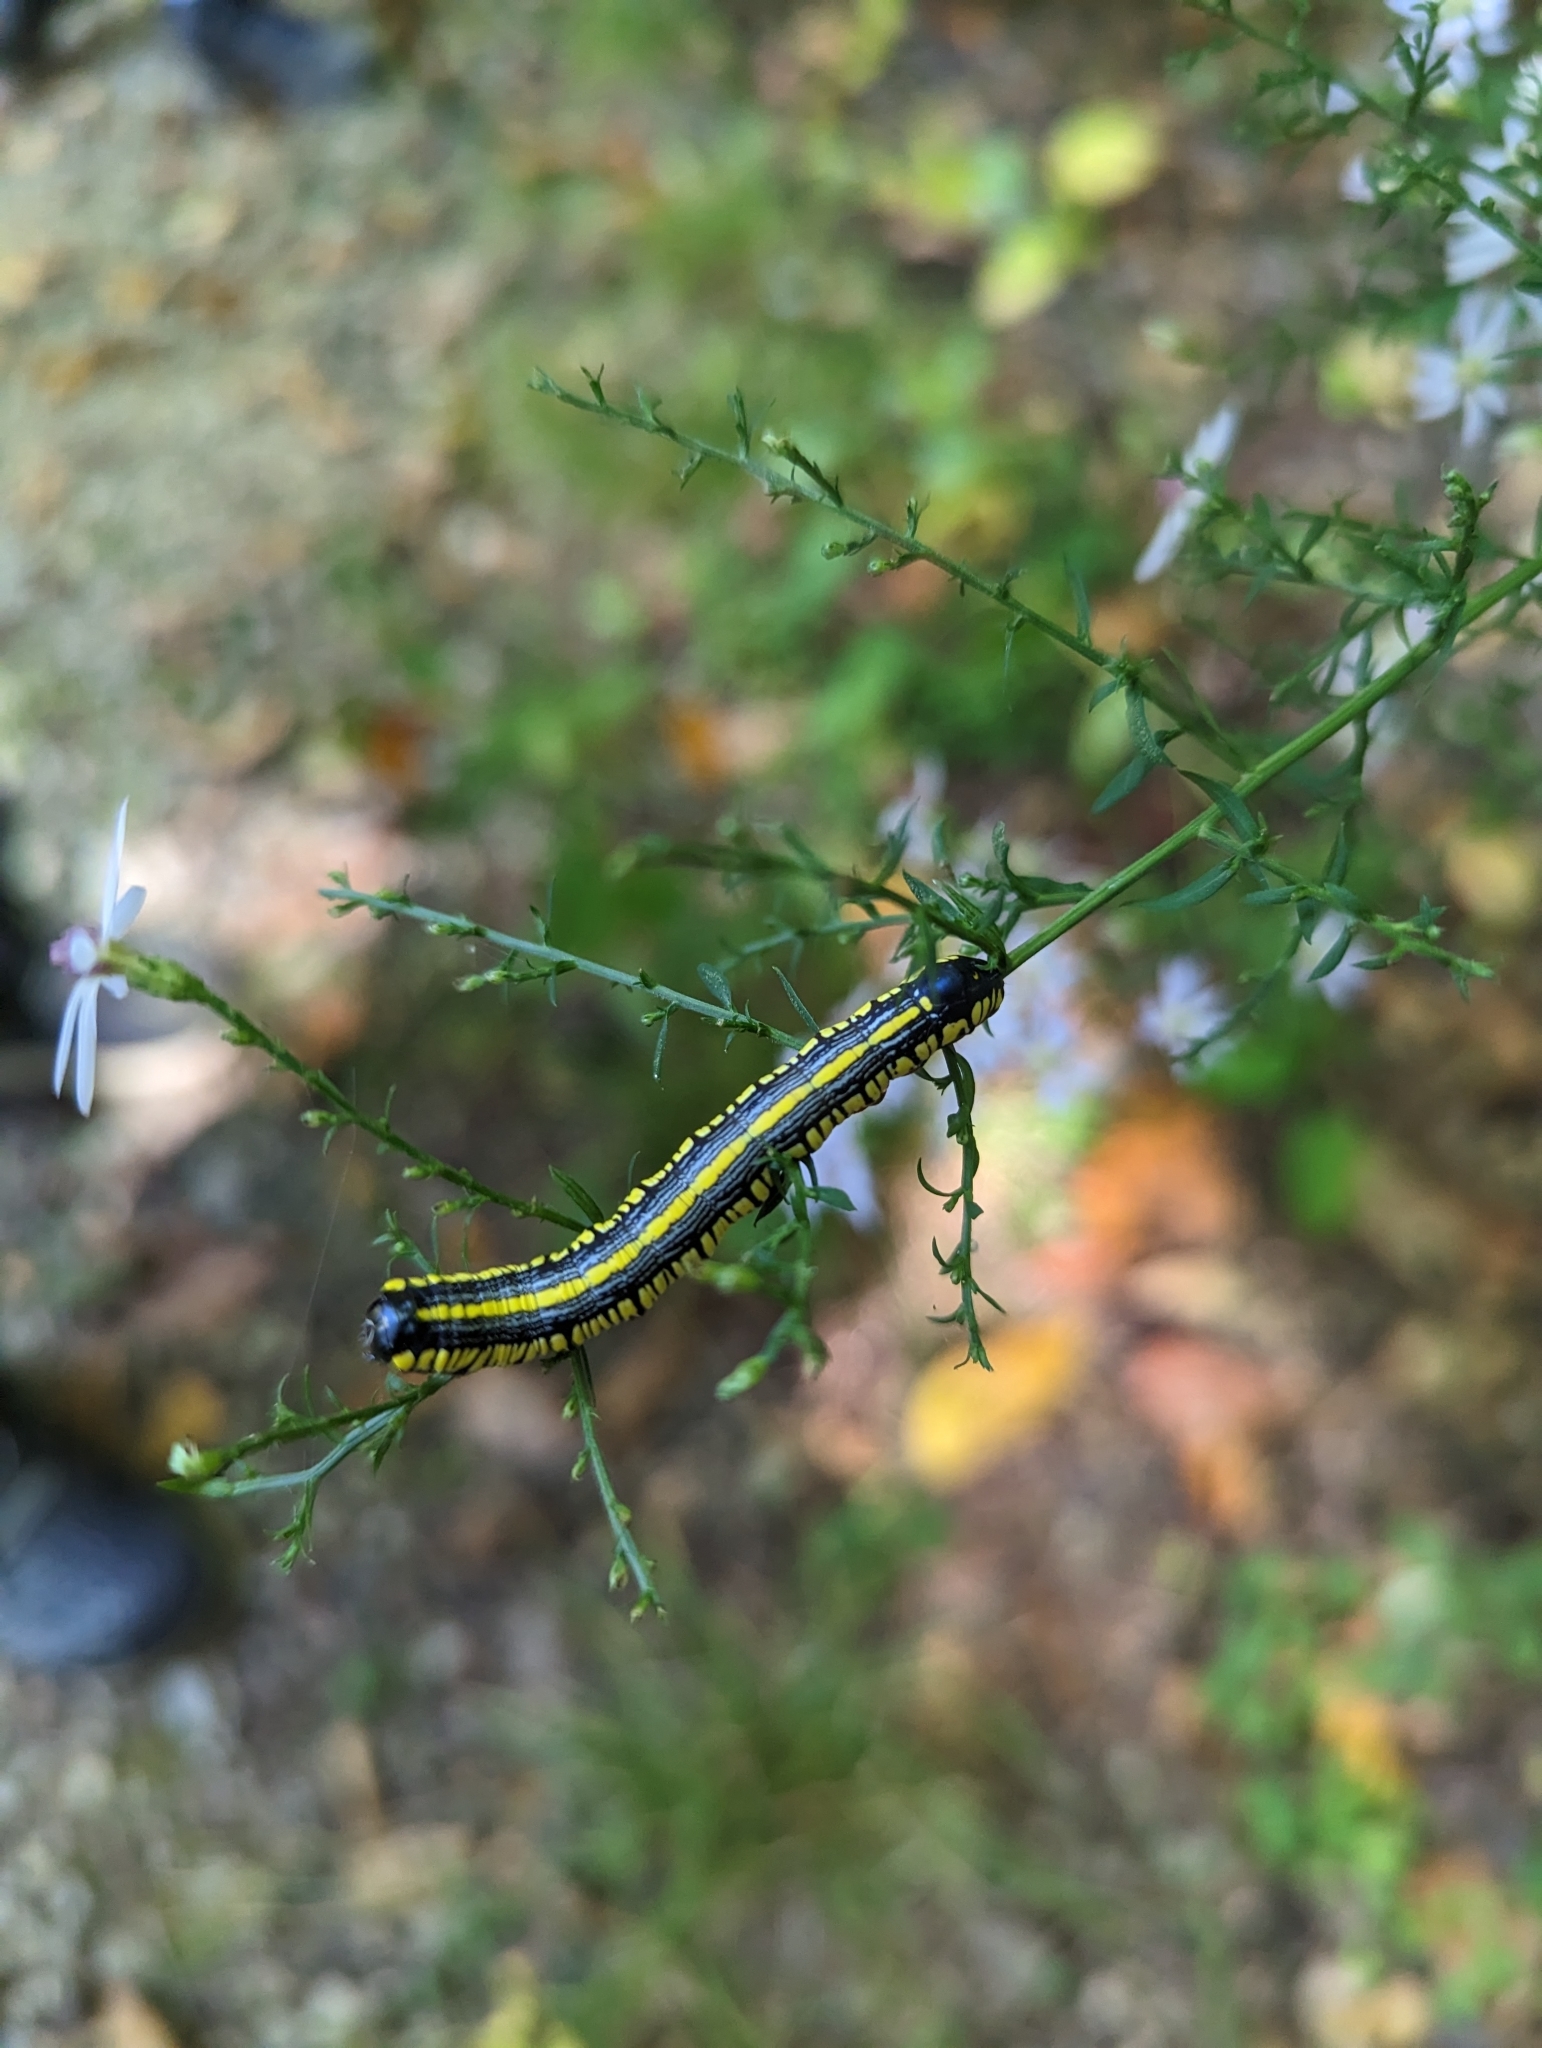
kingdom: Animalia
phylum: Arthropoda
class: Insecta
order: Lepidoptera
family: Noctuidae
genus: Cucullia
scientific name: Cucullia convexipennis
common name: Brown-hooded owlet
